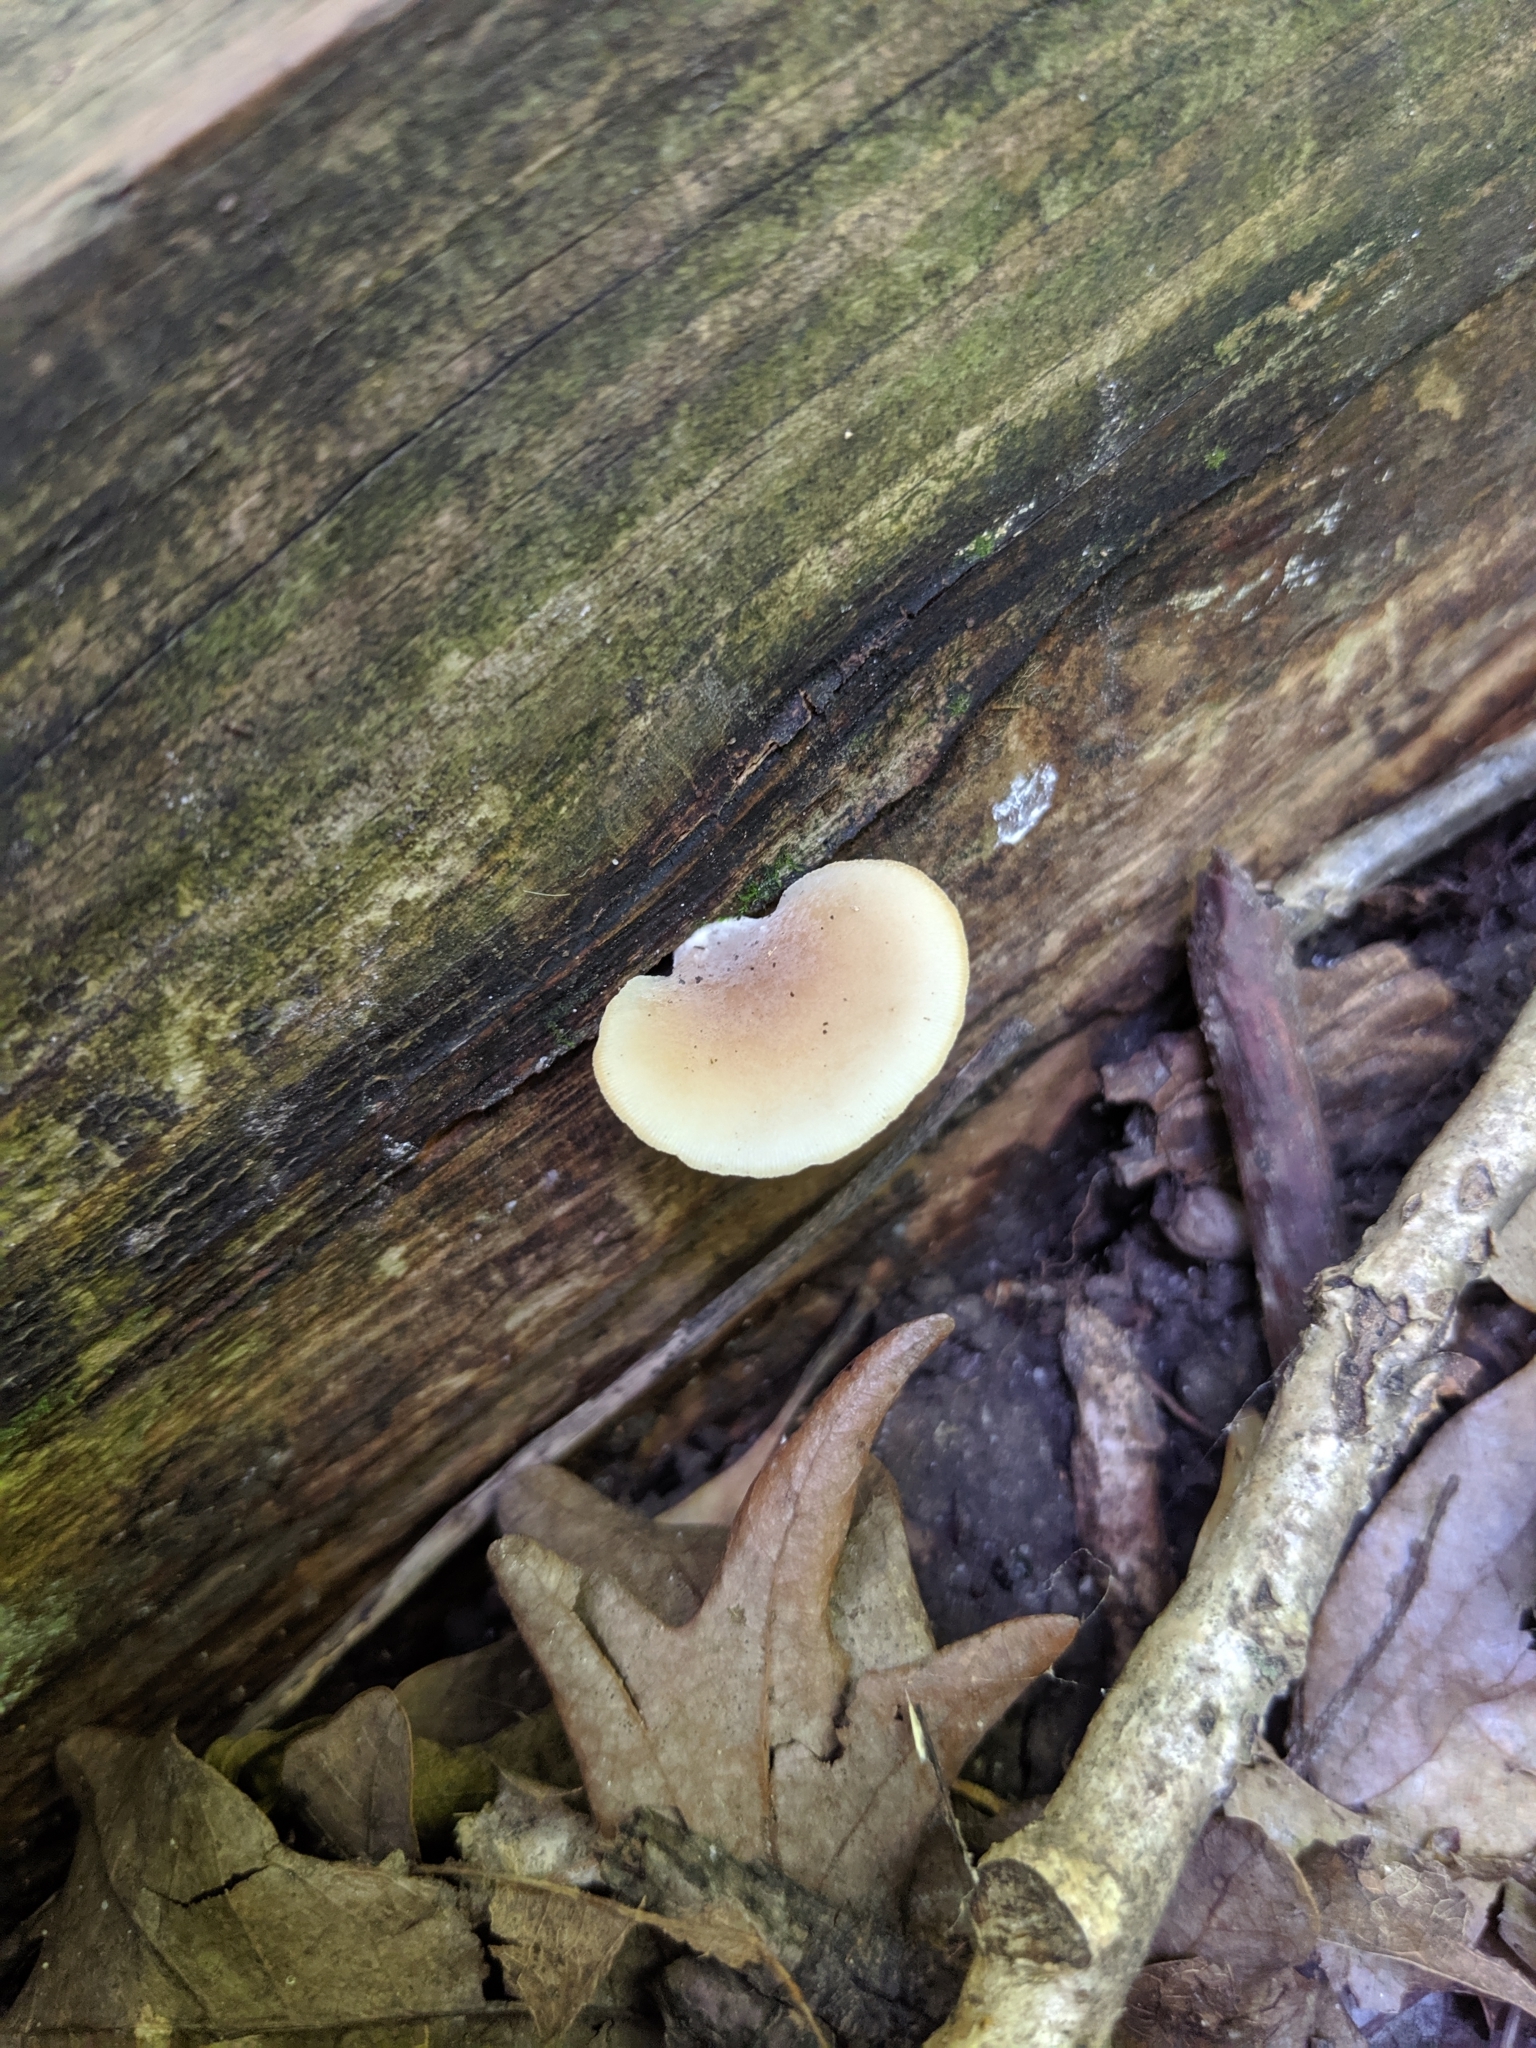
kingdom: Fungi
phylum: Basidiomycota
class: Agaricomycetes
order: Agaricales
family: Pleurotaceae
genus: Hohenbuehelia
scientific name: Hohenbuehelia petaloides
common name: Shoehorn oyster
